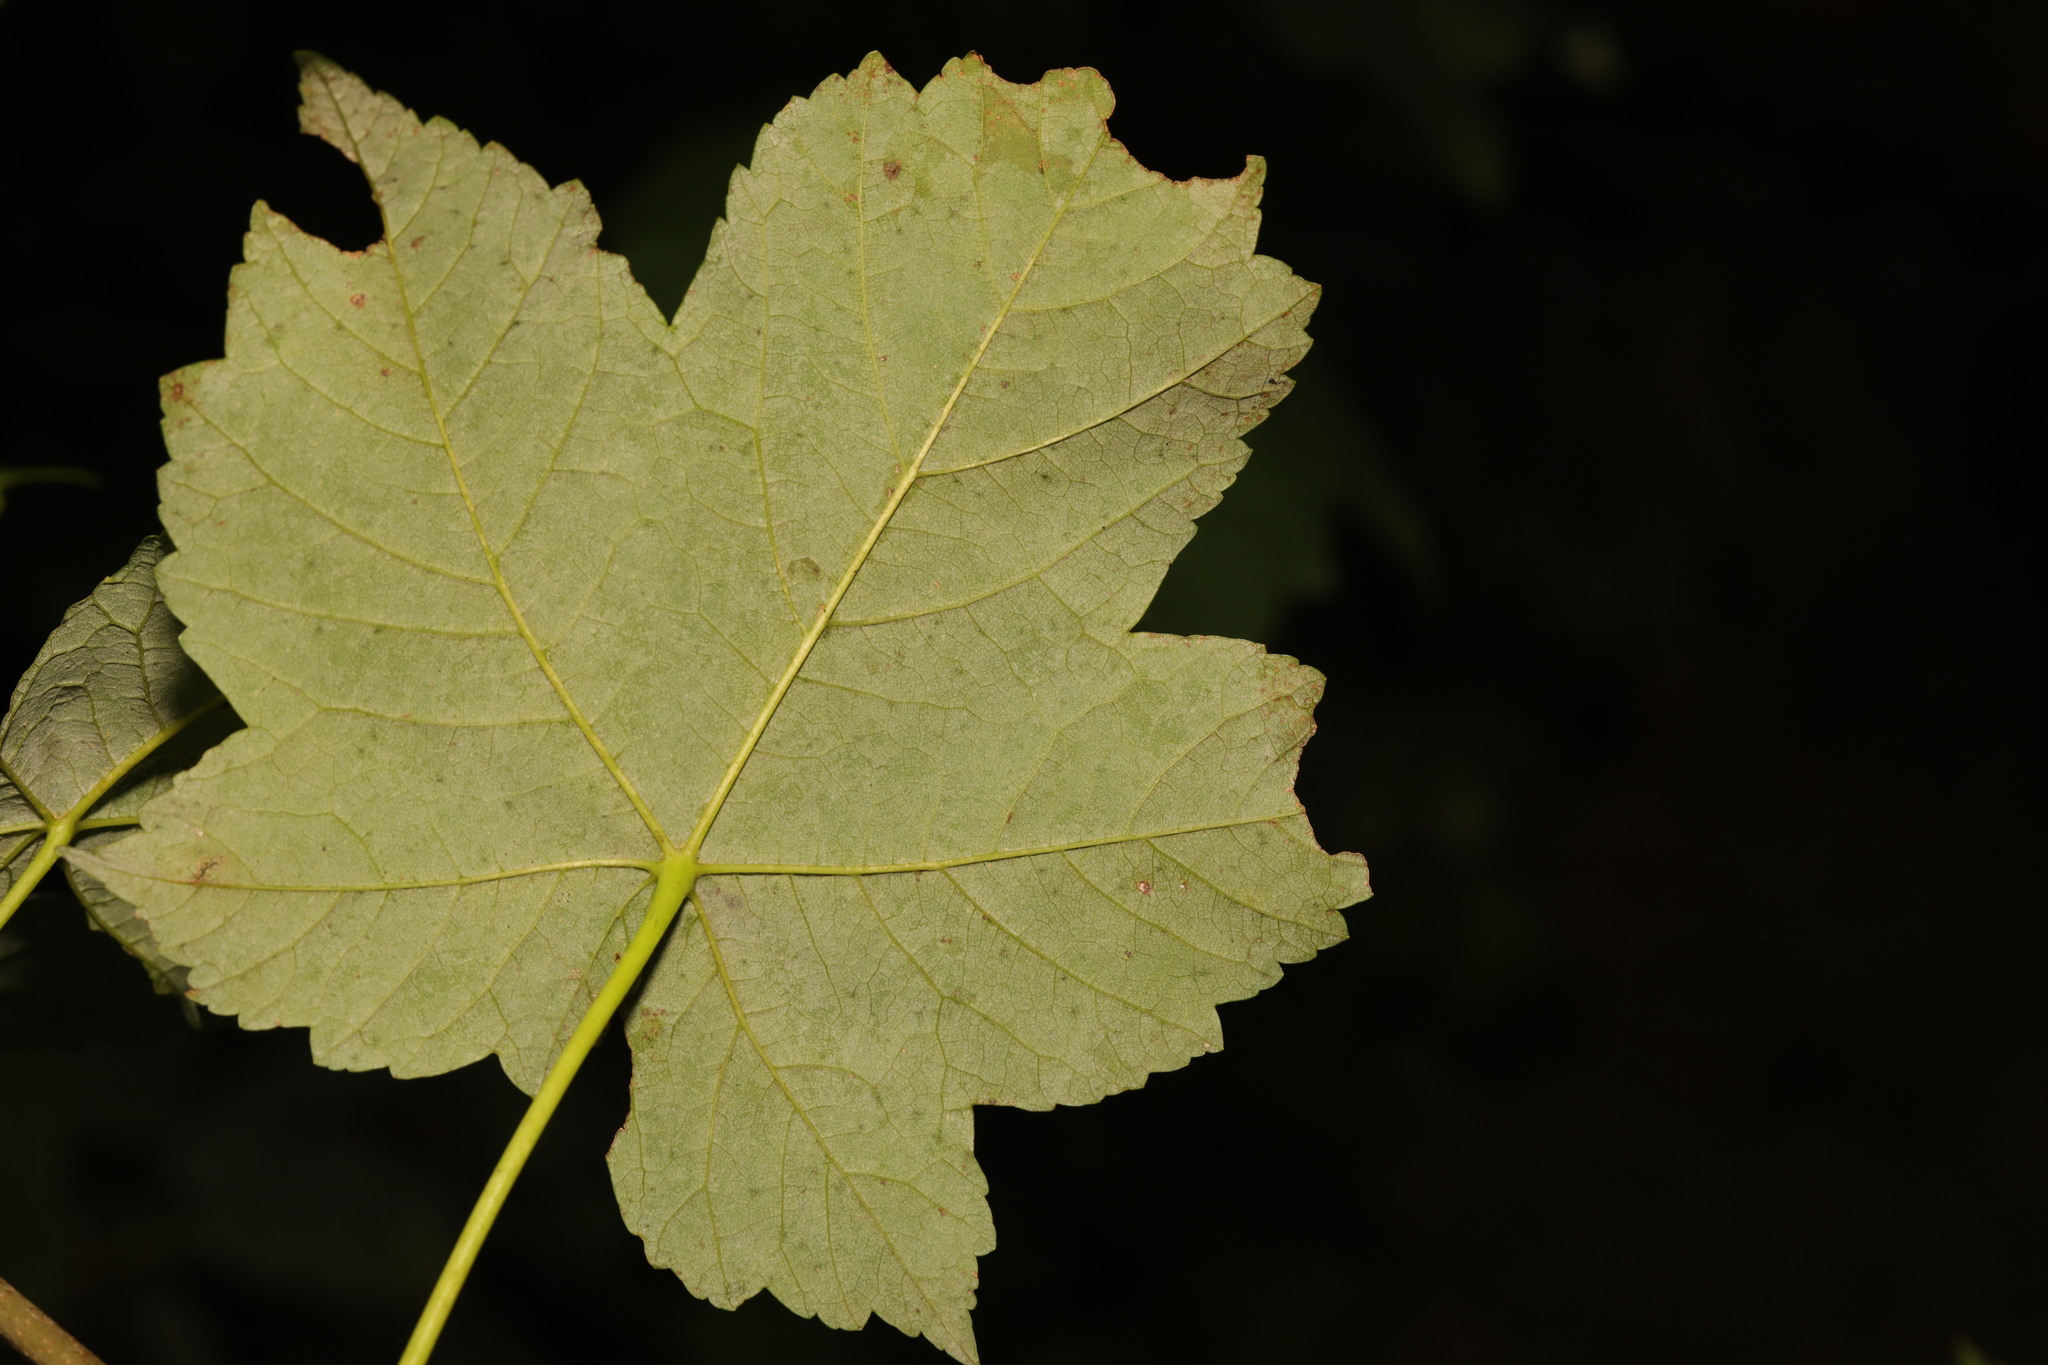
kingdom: Plantae
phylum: Tracheophyta
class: Magnoliopsida
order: Sapindales
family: Sapindaceae
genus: Acer
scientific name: Acer pseudoplatanus
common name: Sycamore
